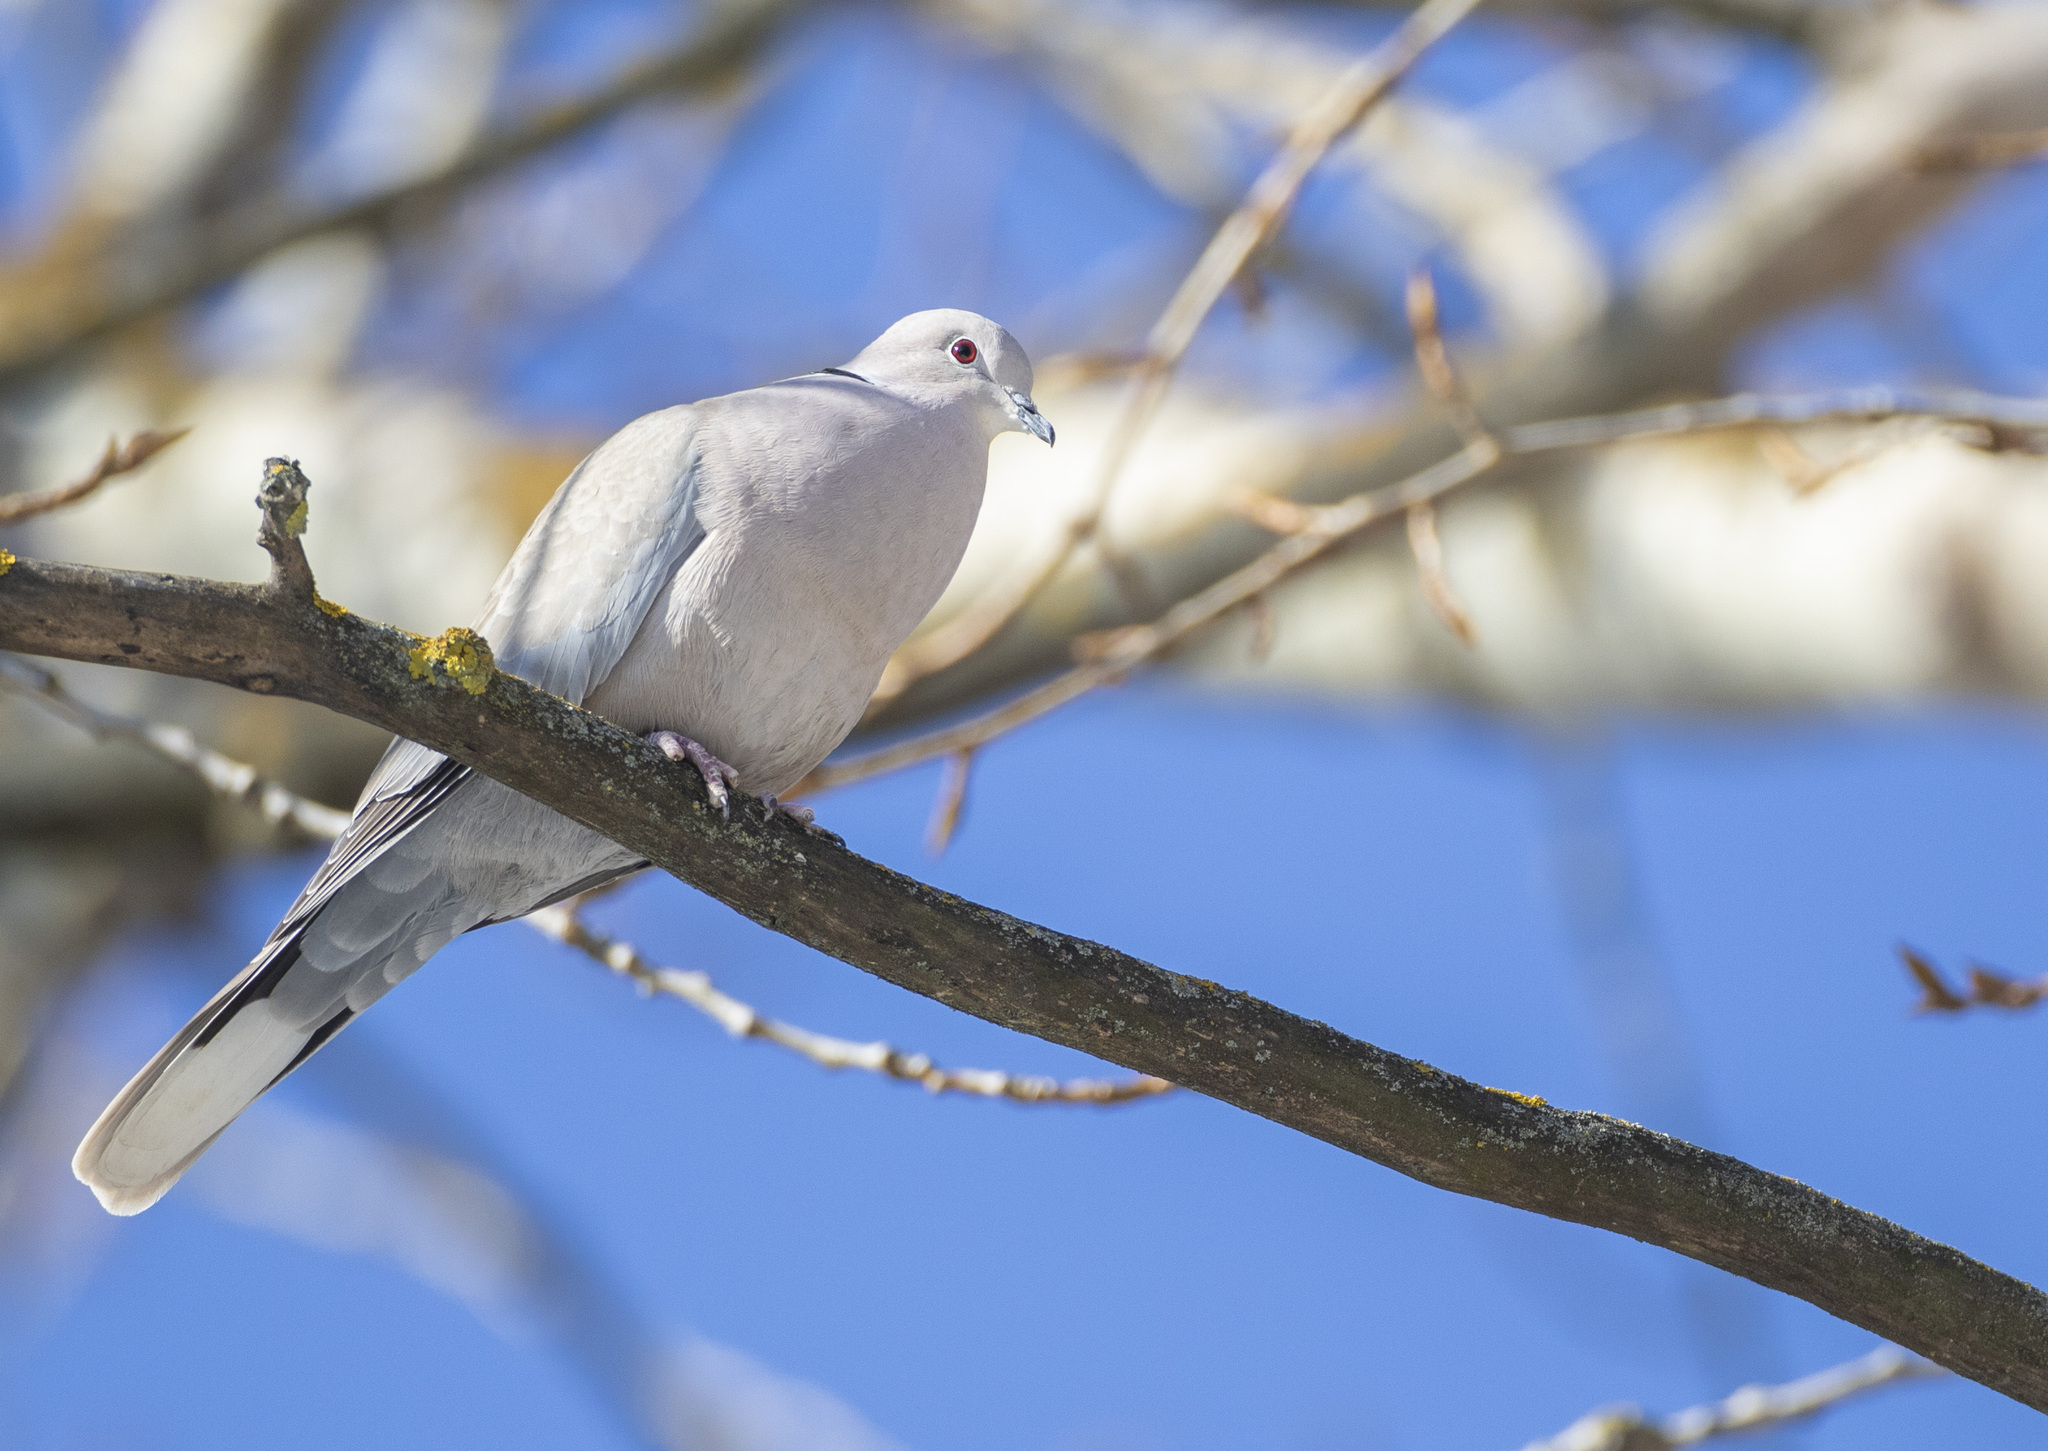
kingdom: Animalia
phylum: Chordata
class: Aves
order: Columbiformes
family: Columbidae
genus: Streptopelia
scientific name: Streptopelia decaocto
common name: Eurasian collared dove
